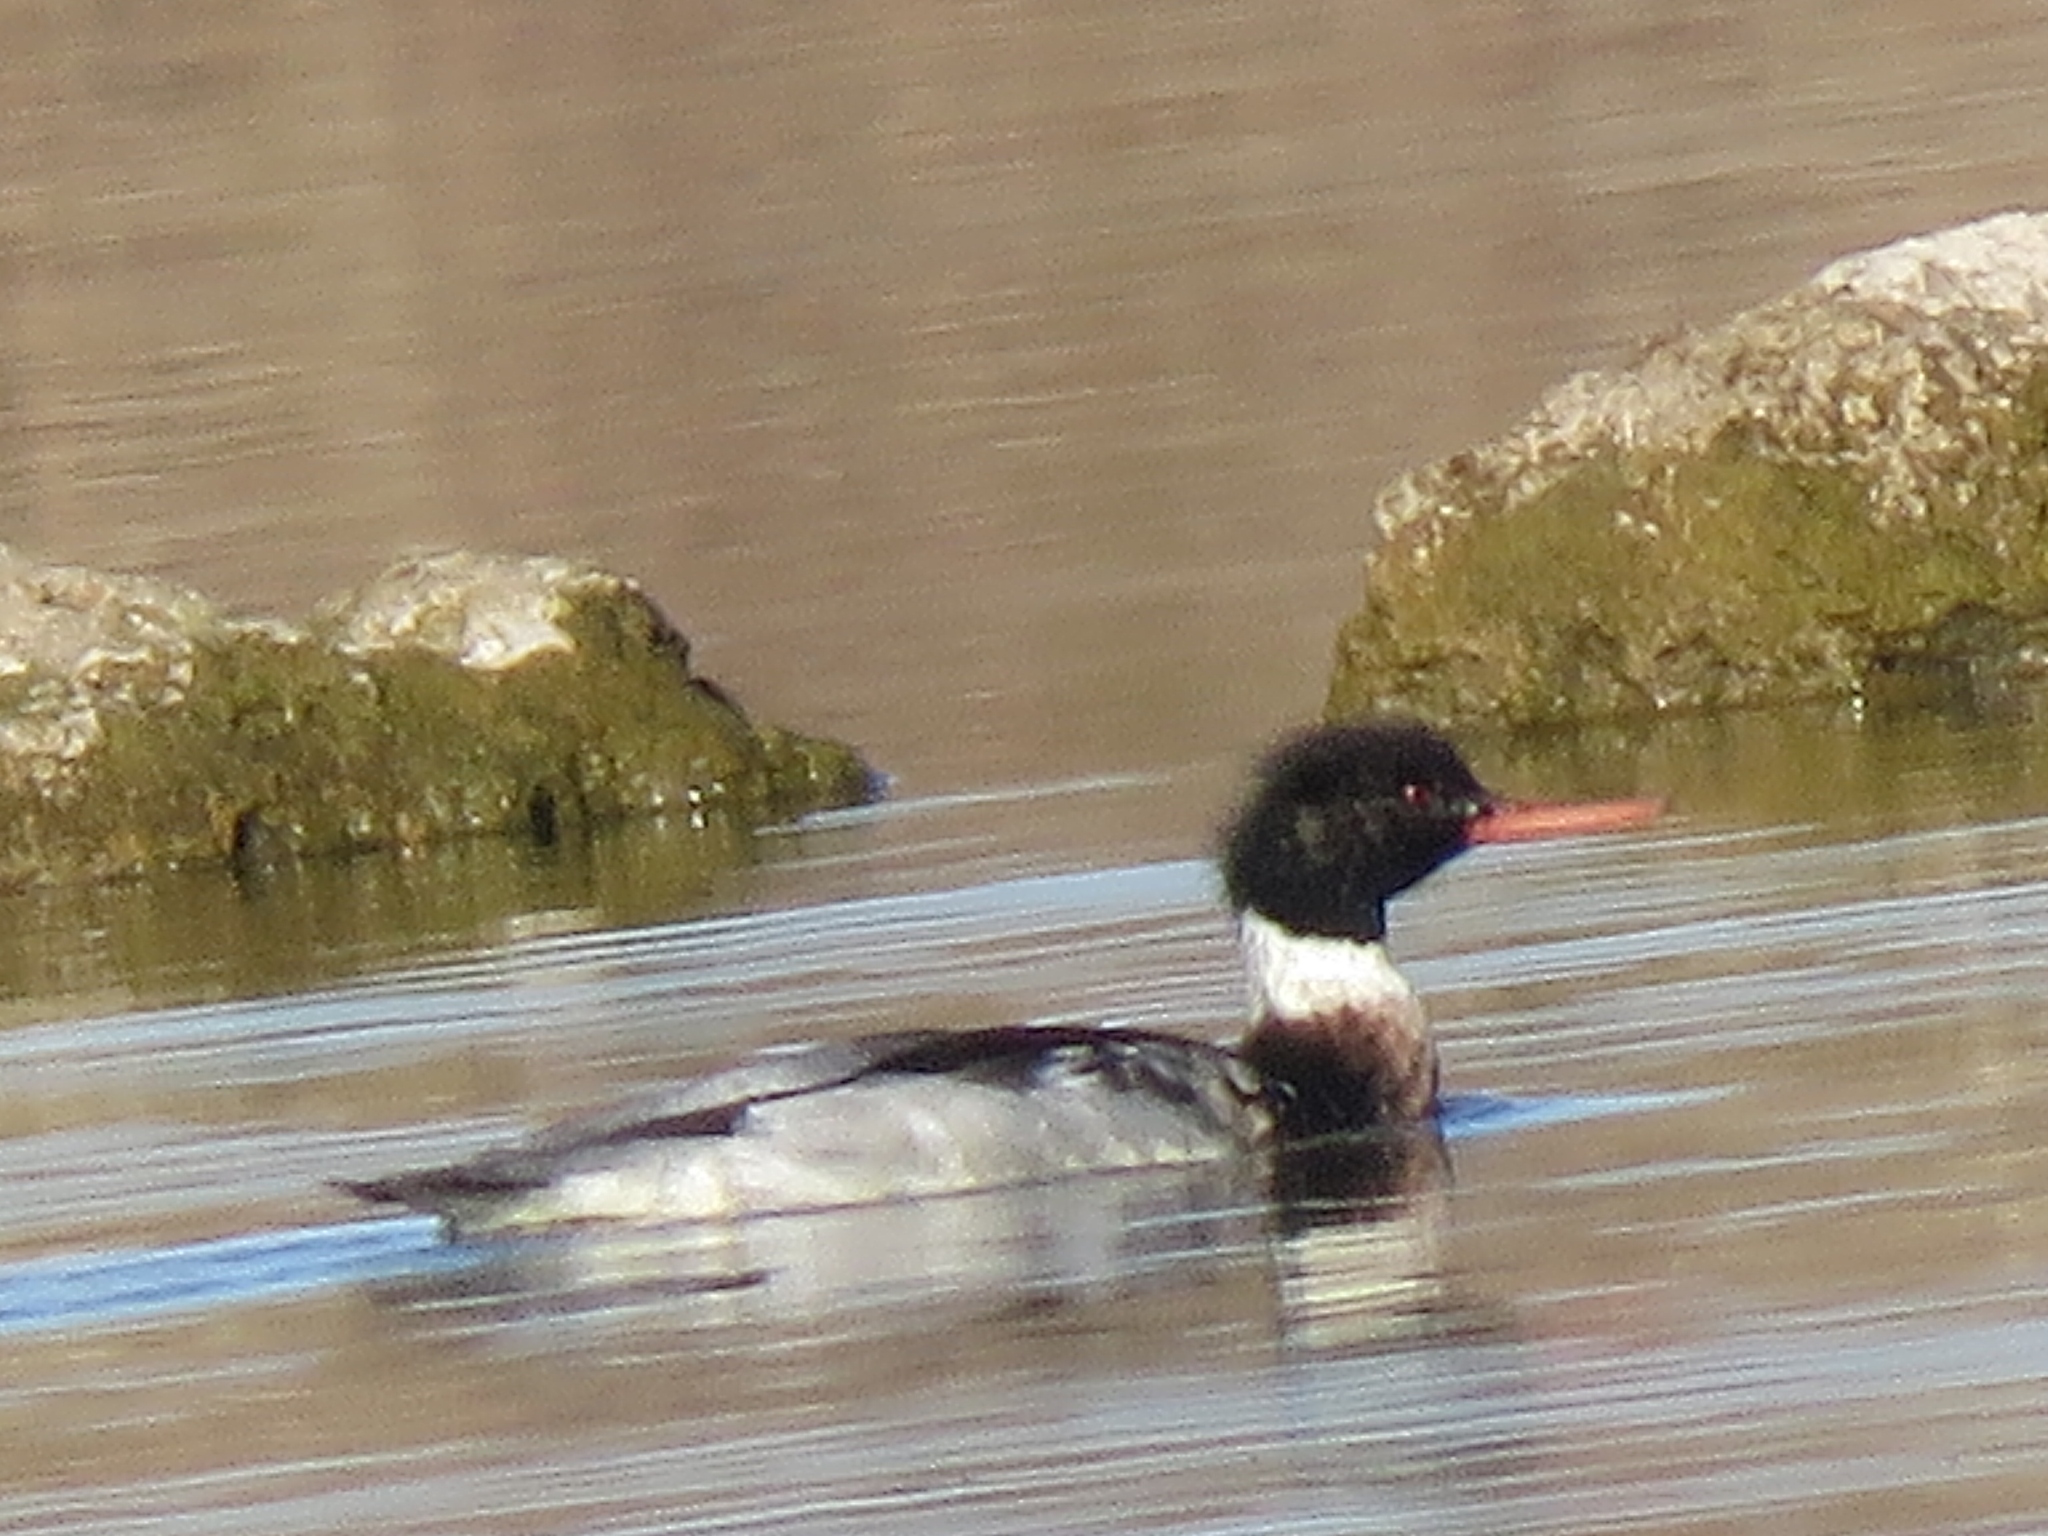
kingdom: Animalia
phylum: Chordata
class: Aves
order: Anseriformes
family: Anatidae
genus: Mergus
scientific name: Mergus serrator
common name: Red-breasted merganser
